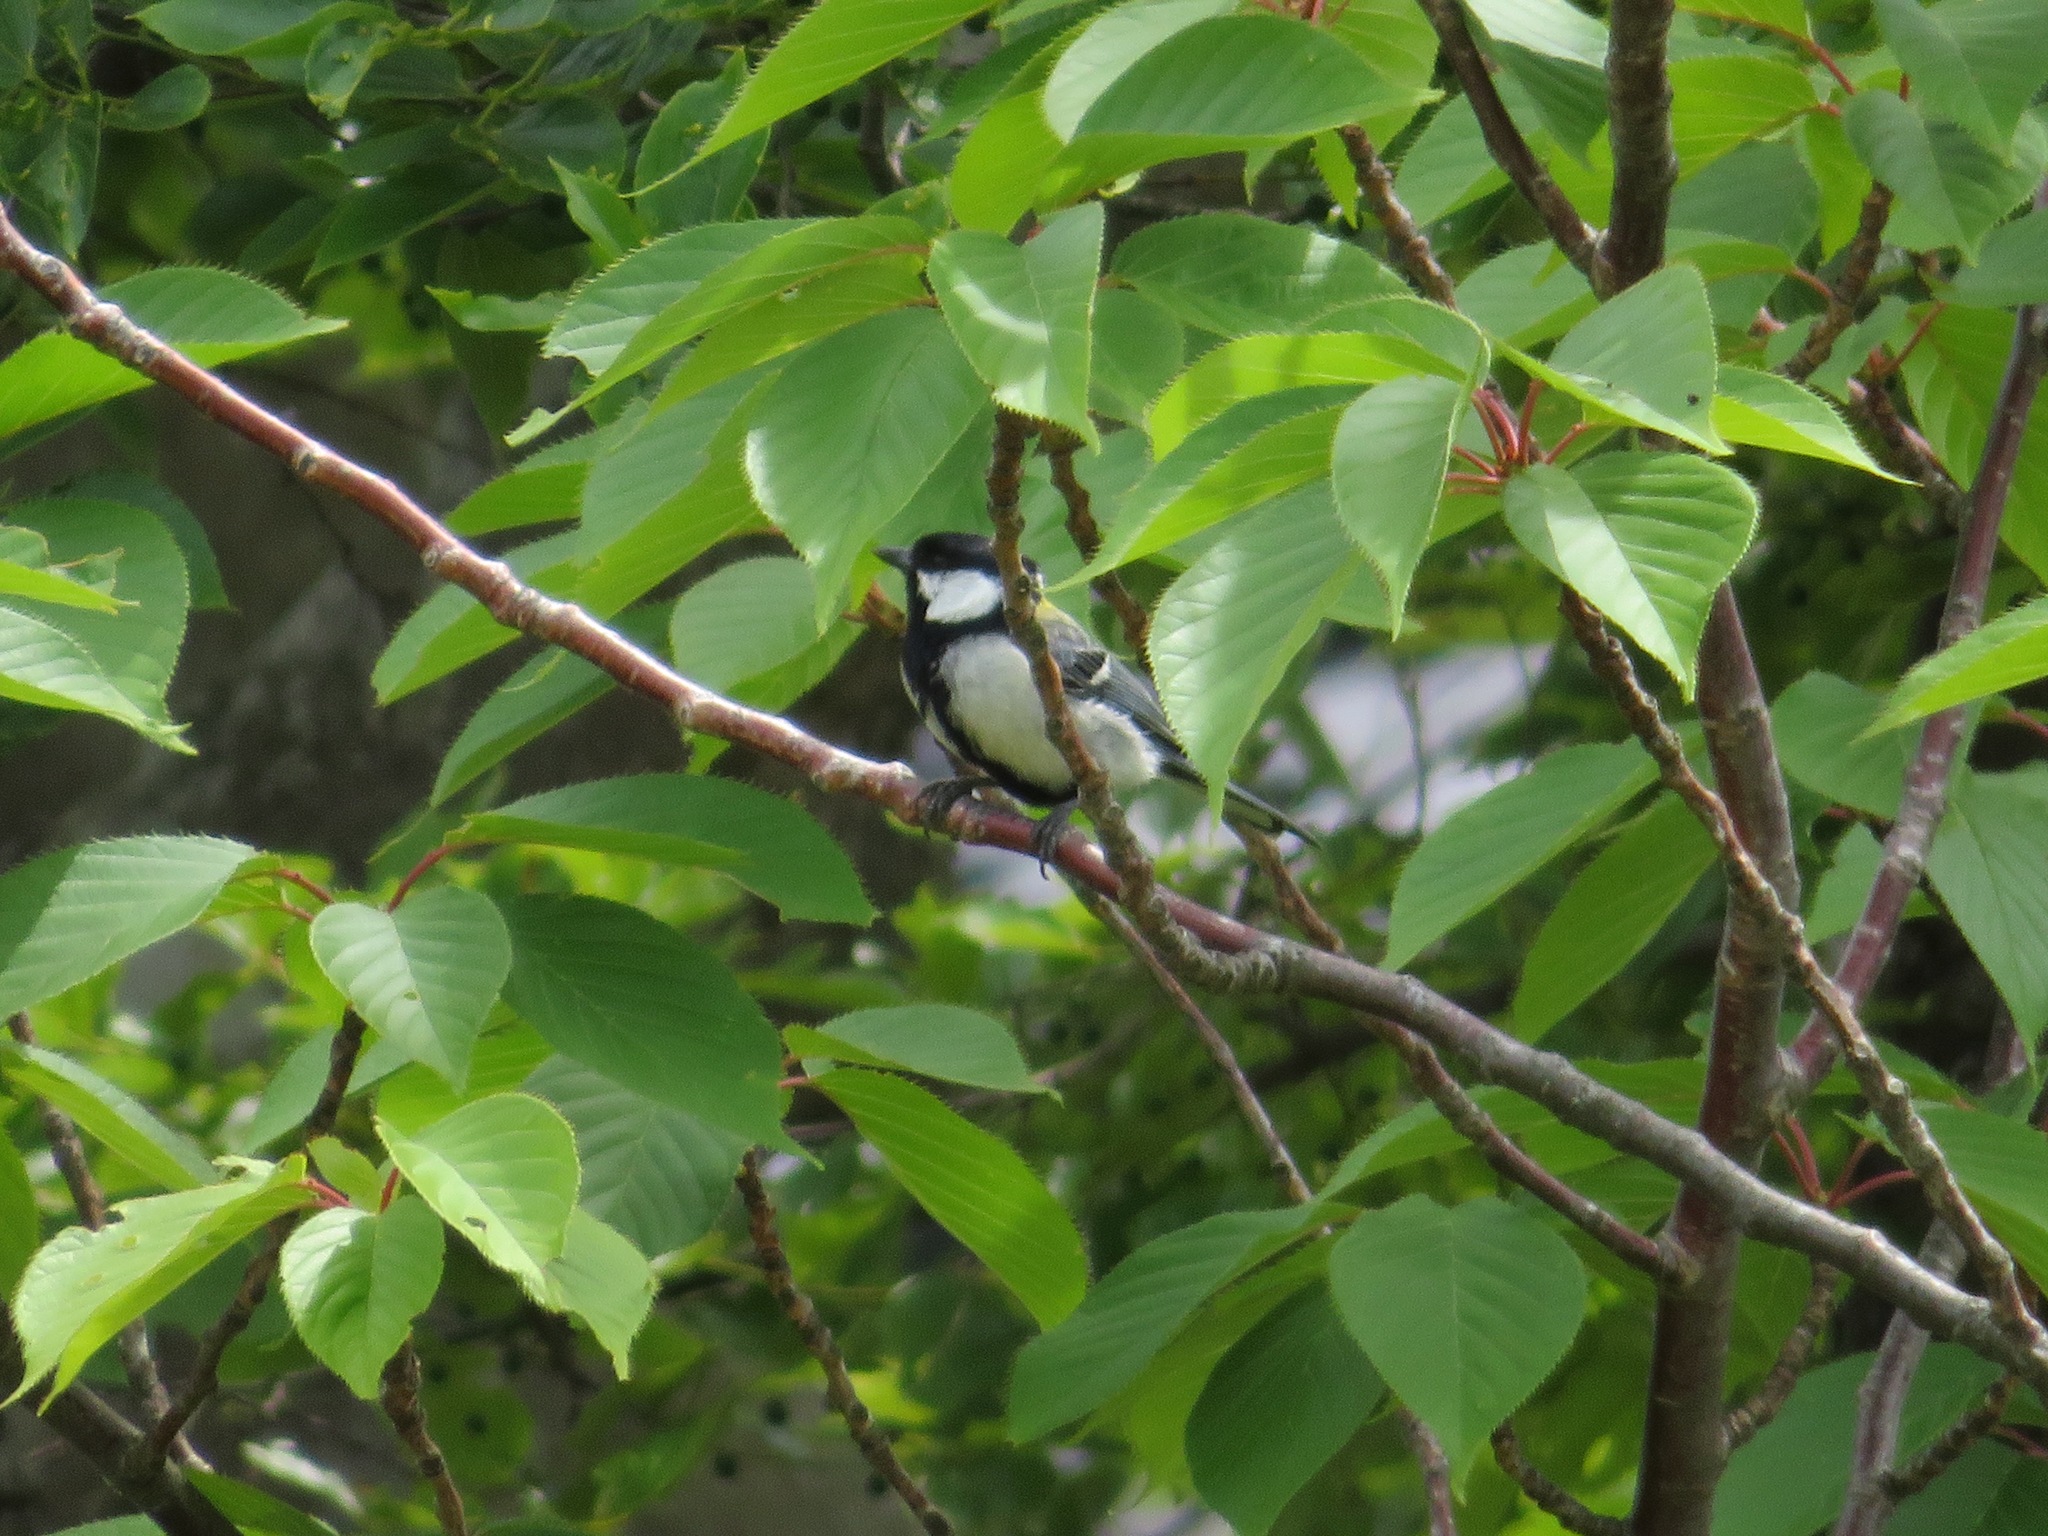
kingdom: Animalia
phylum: Chordata
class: Aves
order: Passeriformes
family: Paridae
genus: Parus
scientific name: Parus minor
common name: Japanese tit
